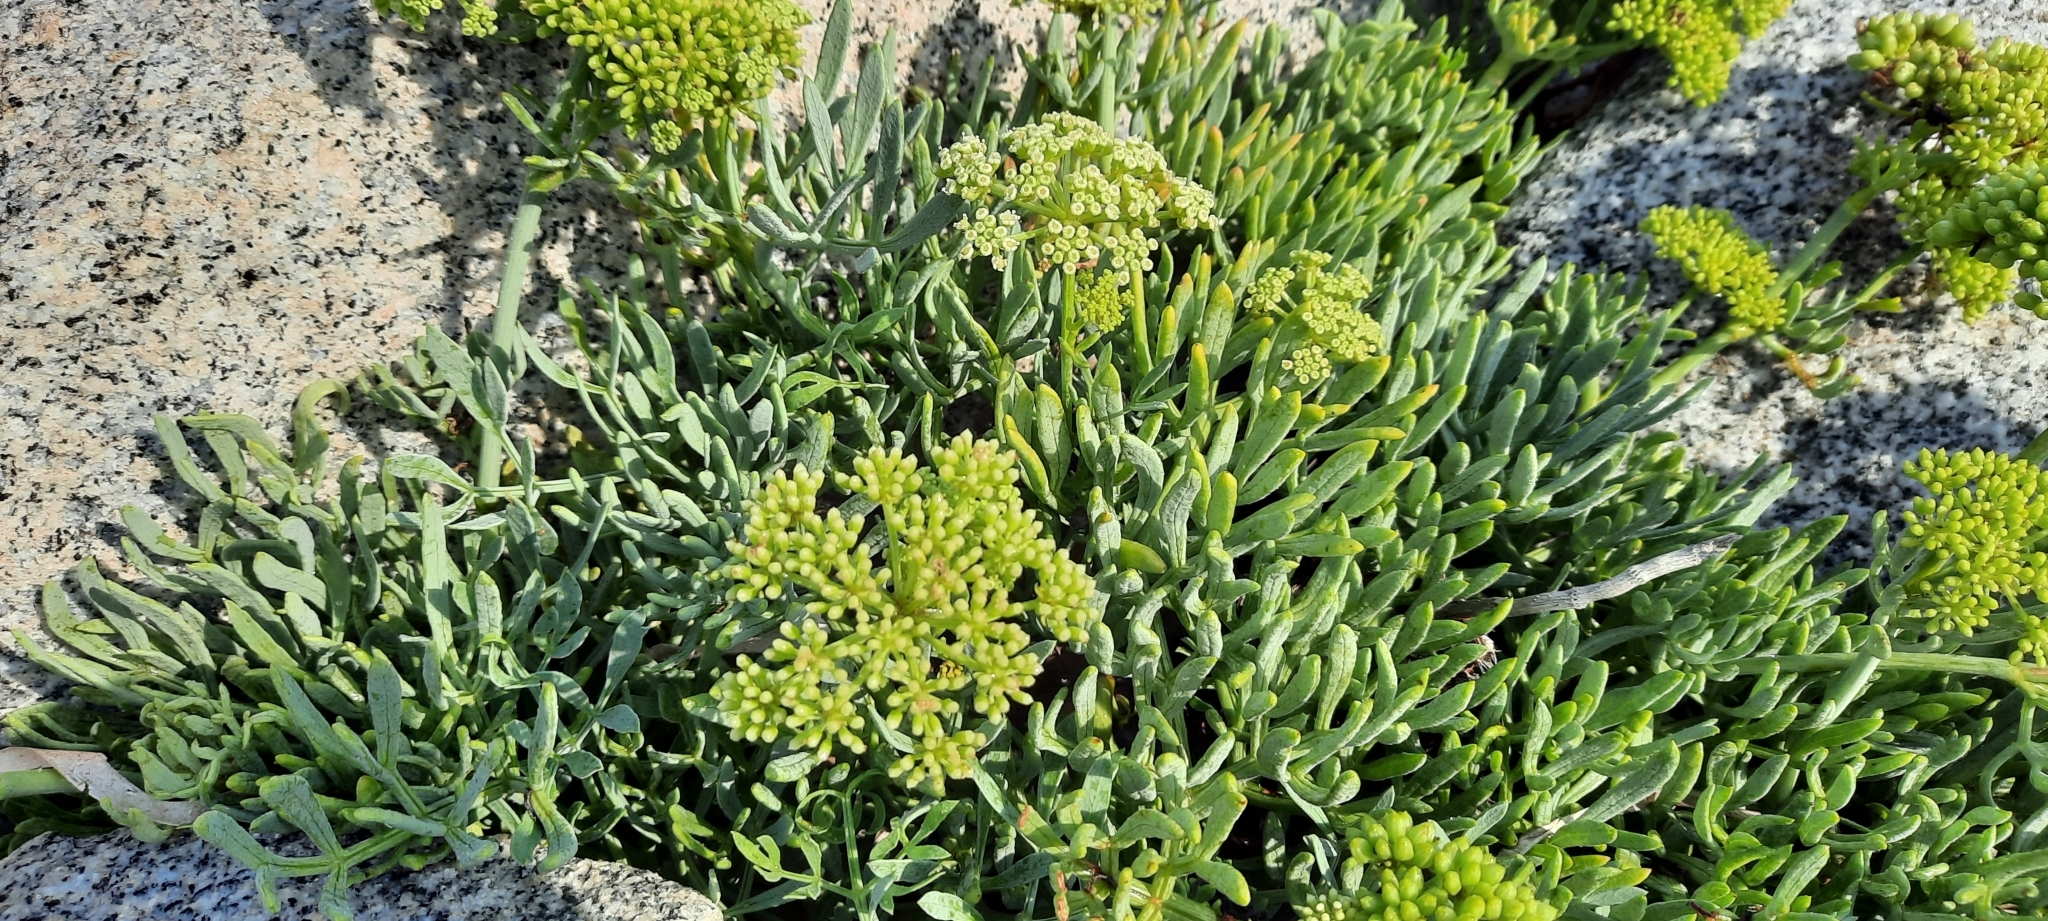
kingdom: Plantae
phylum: Tracheophyta
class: Magnoliopsida
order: Apiales
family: Apiaceae
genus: Crithmum
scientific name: Crithmum maritimum
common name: Rock samphire
